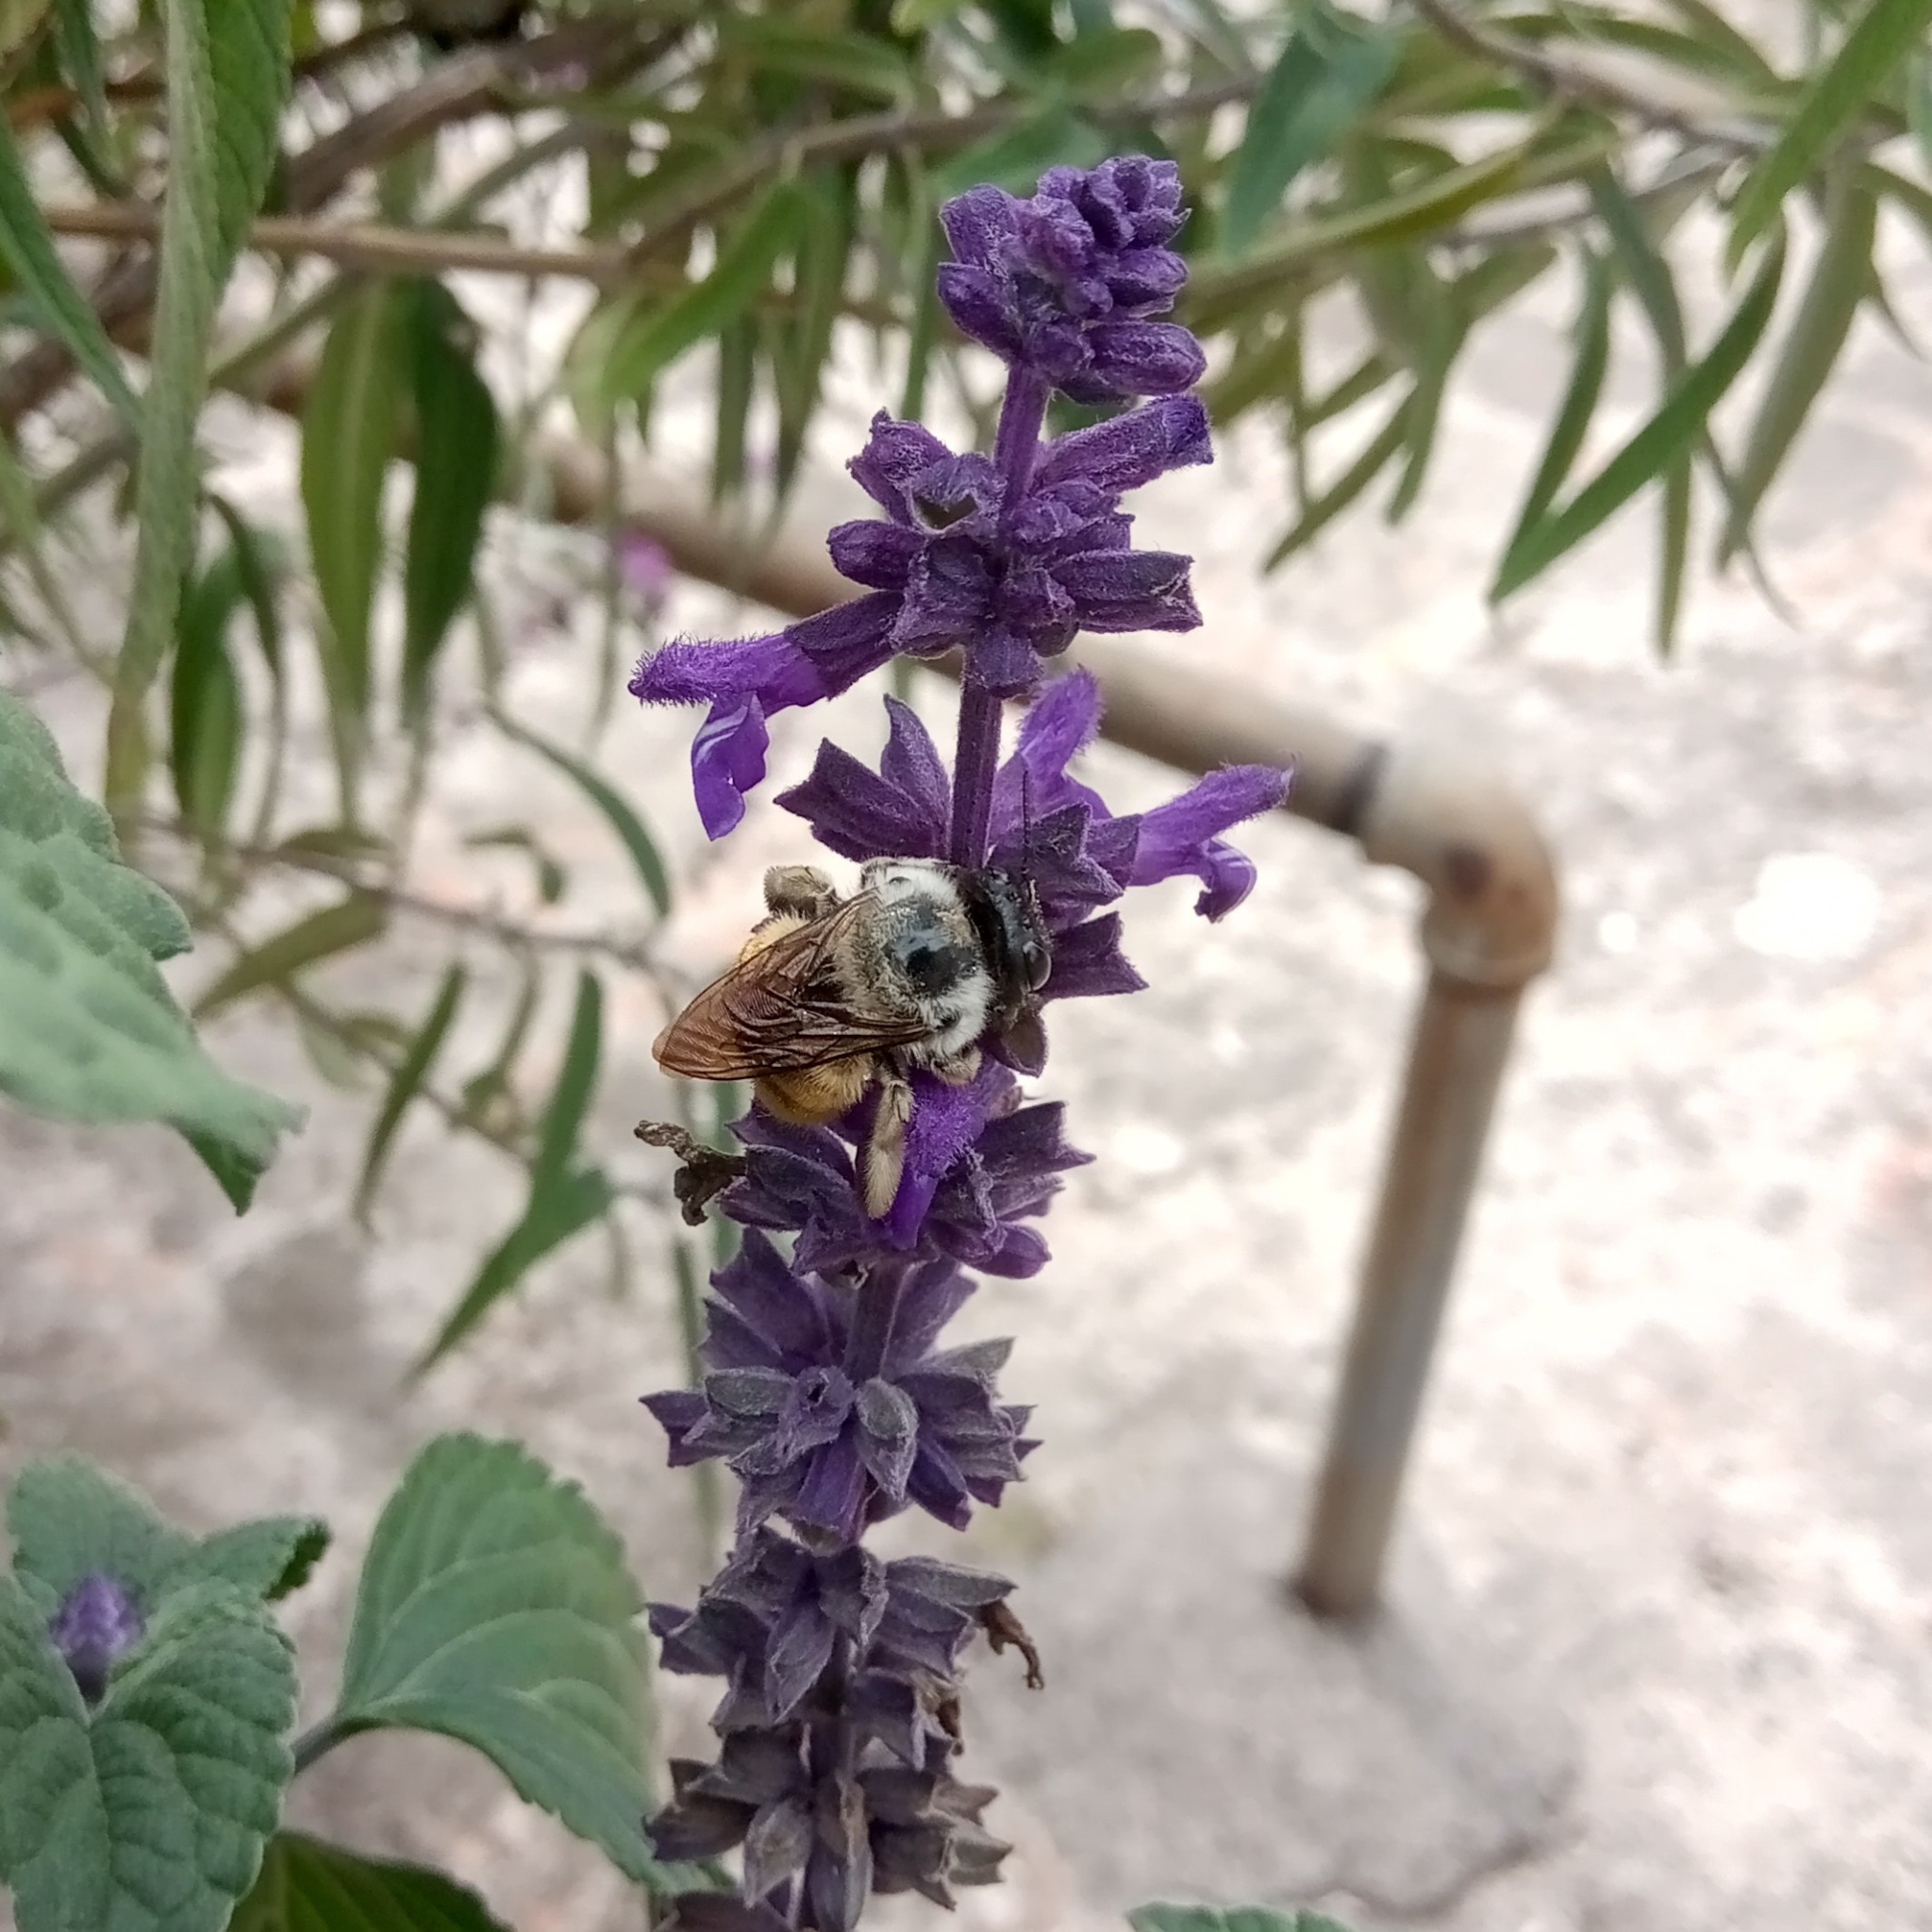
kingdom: Animalia
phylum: Arthropoda
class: Insecta
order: Hymenoptera
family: Apidae
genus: Xylocopa
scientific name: Xylocopa tabaniformis
